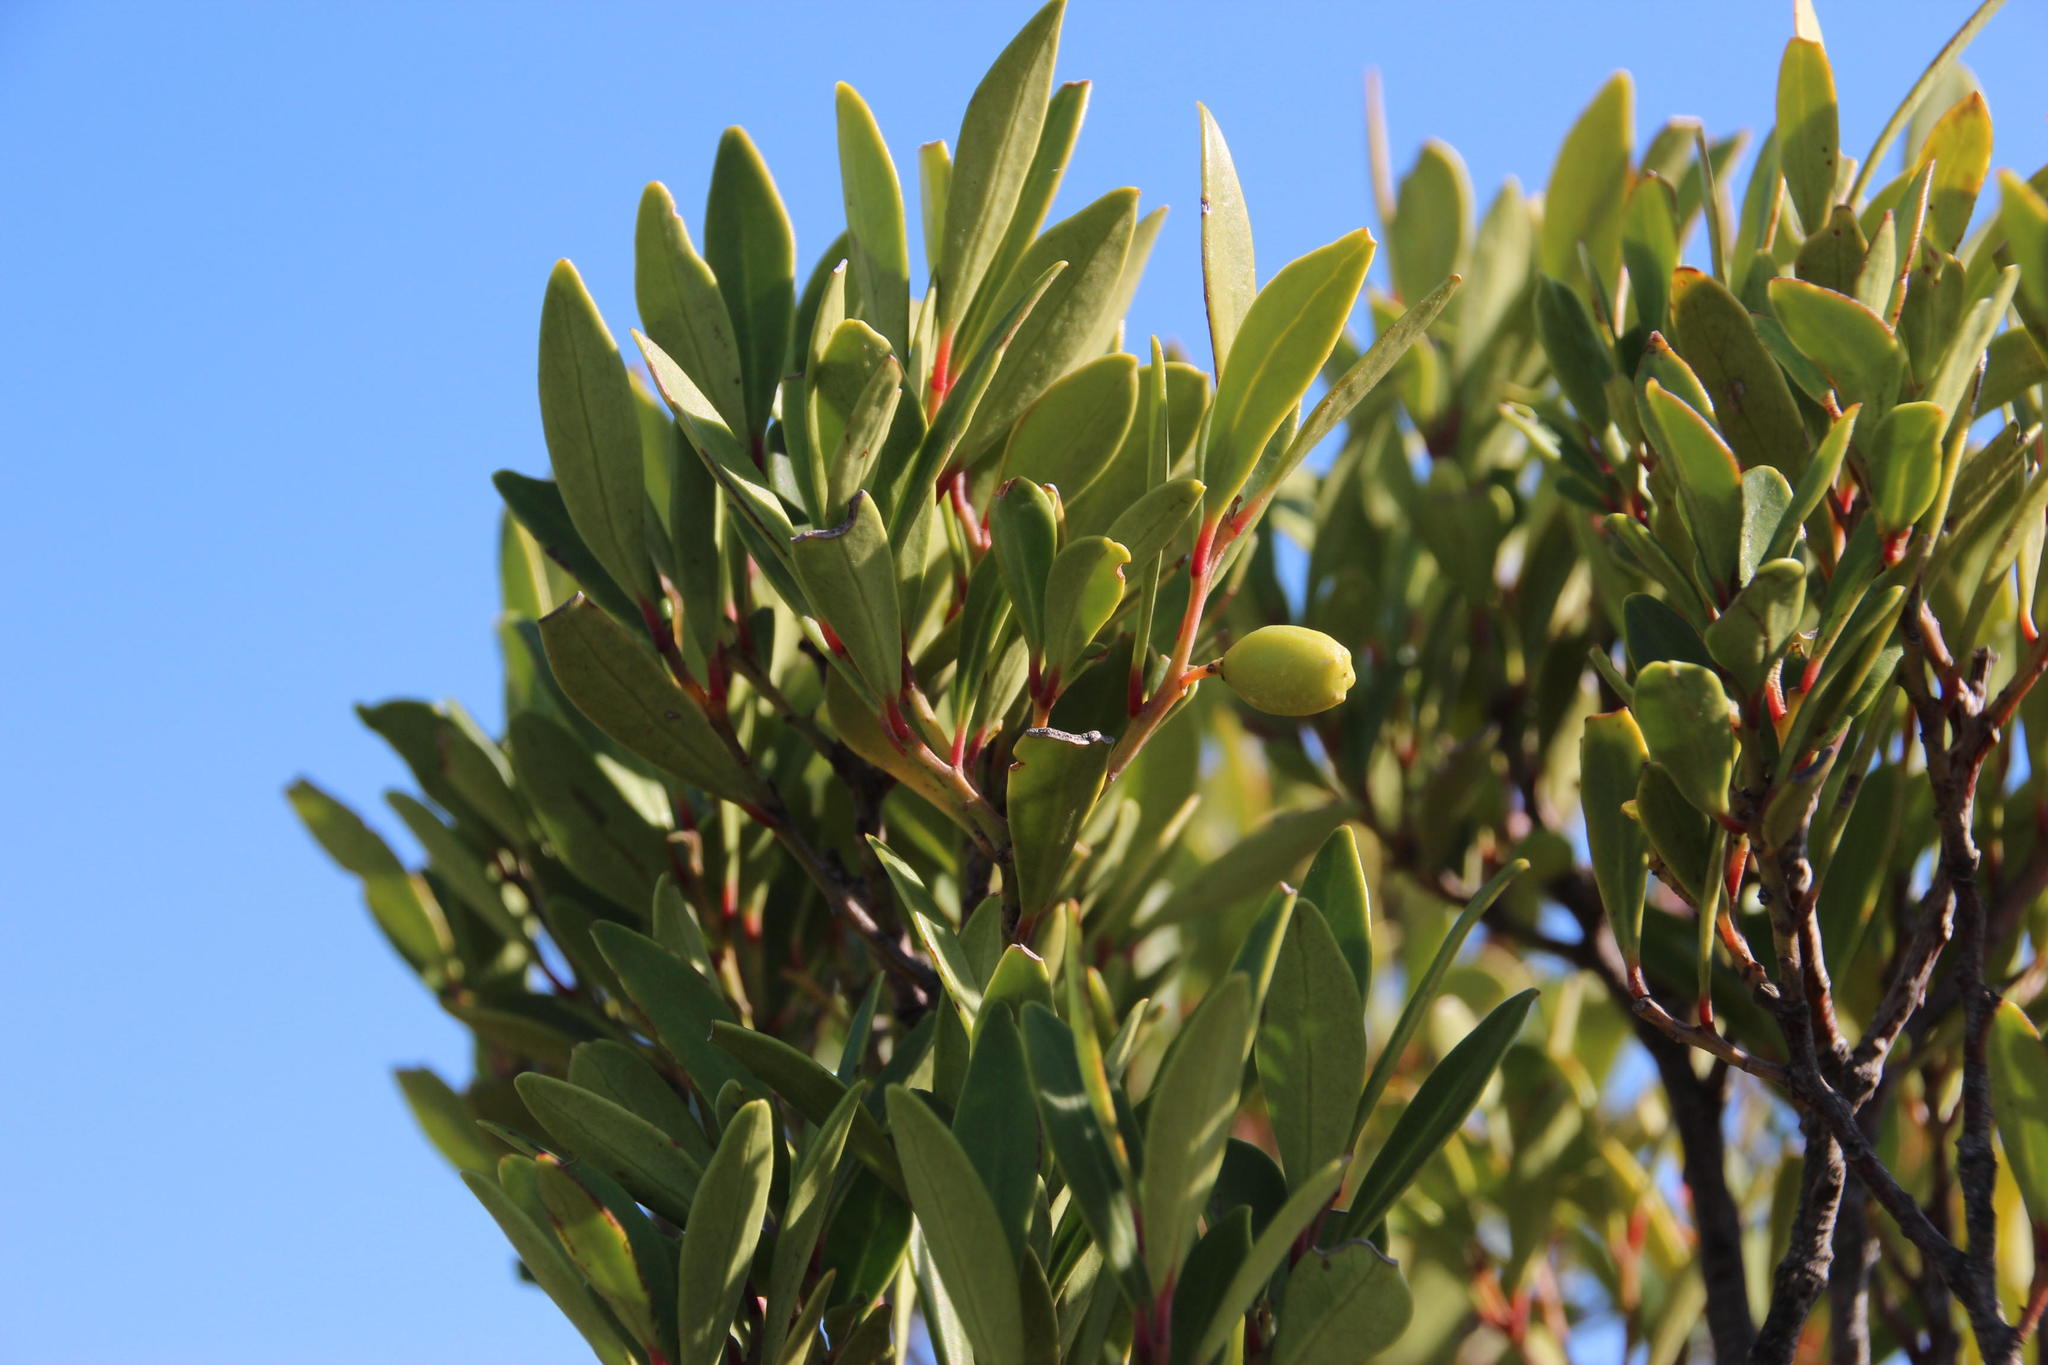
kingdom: Plantae
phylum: Tracheophyta
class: Magnoliopsida
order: Celastrales
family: Celastraceae
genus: Gymnosporia
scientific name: Gymnosporia laurina
